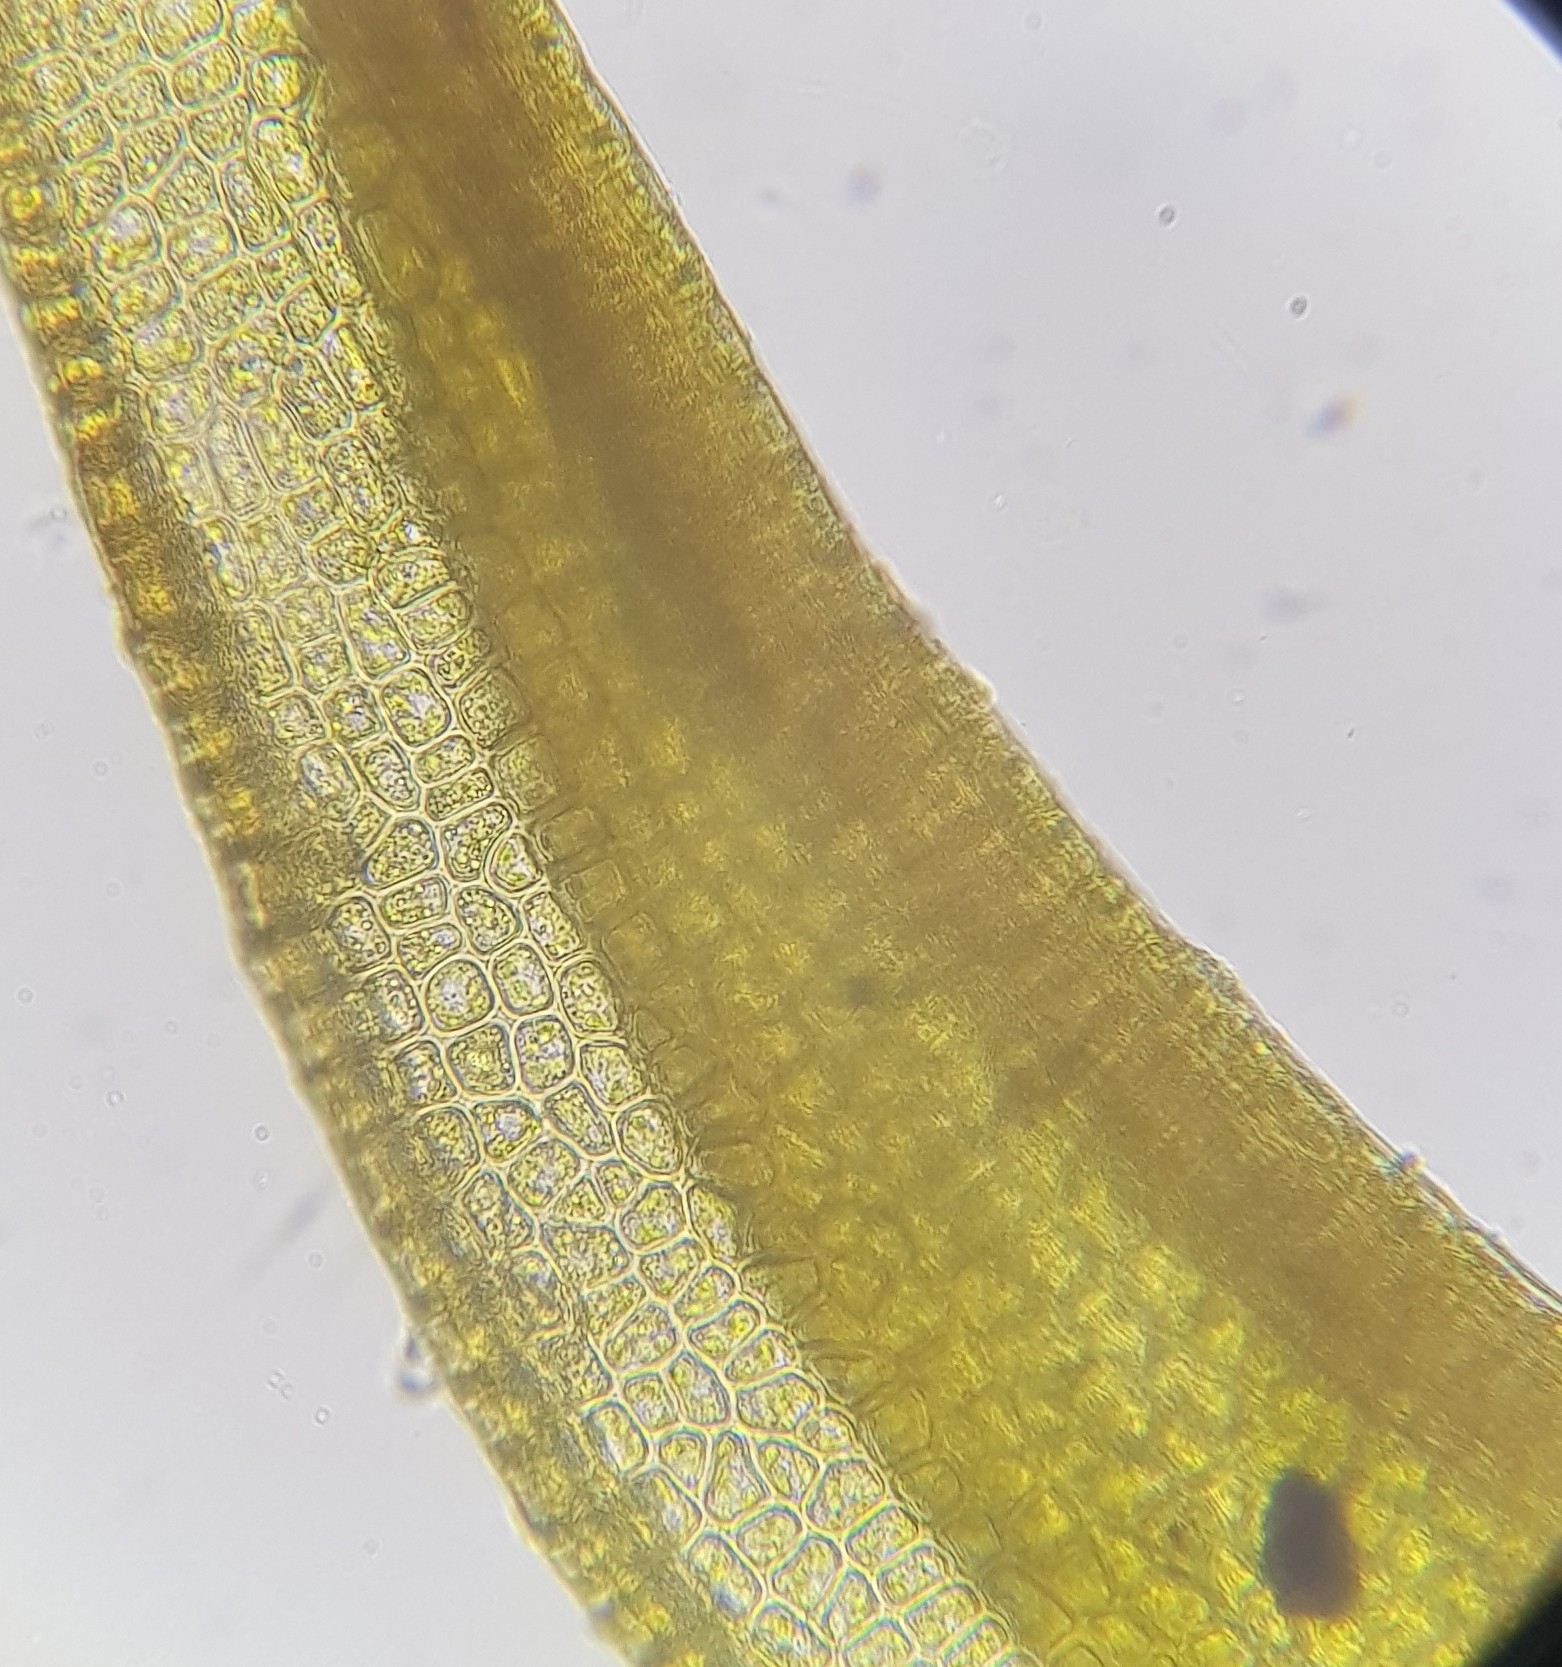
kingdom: Plantae
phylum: Bryophyta
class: Bryopsida
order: Dicranales
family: Ditrichaceae
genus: Ceratodon
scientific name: Ceratodon purpureus
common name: Redshank
